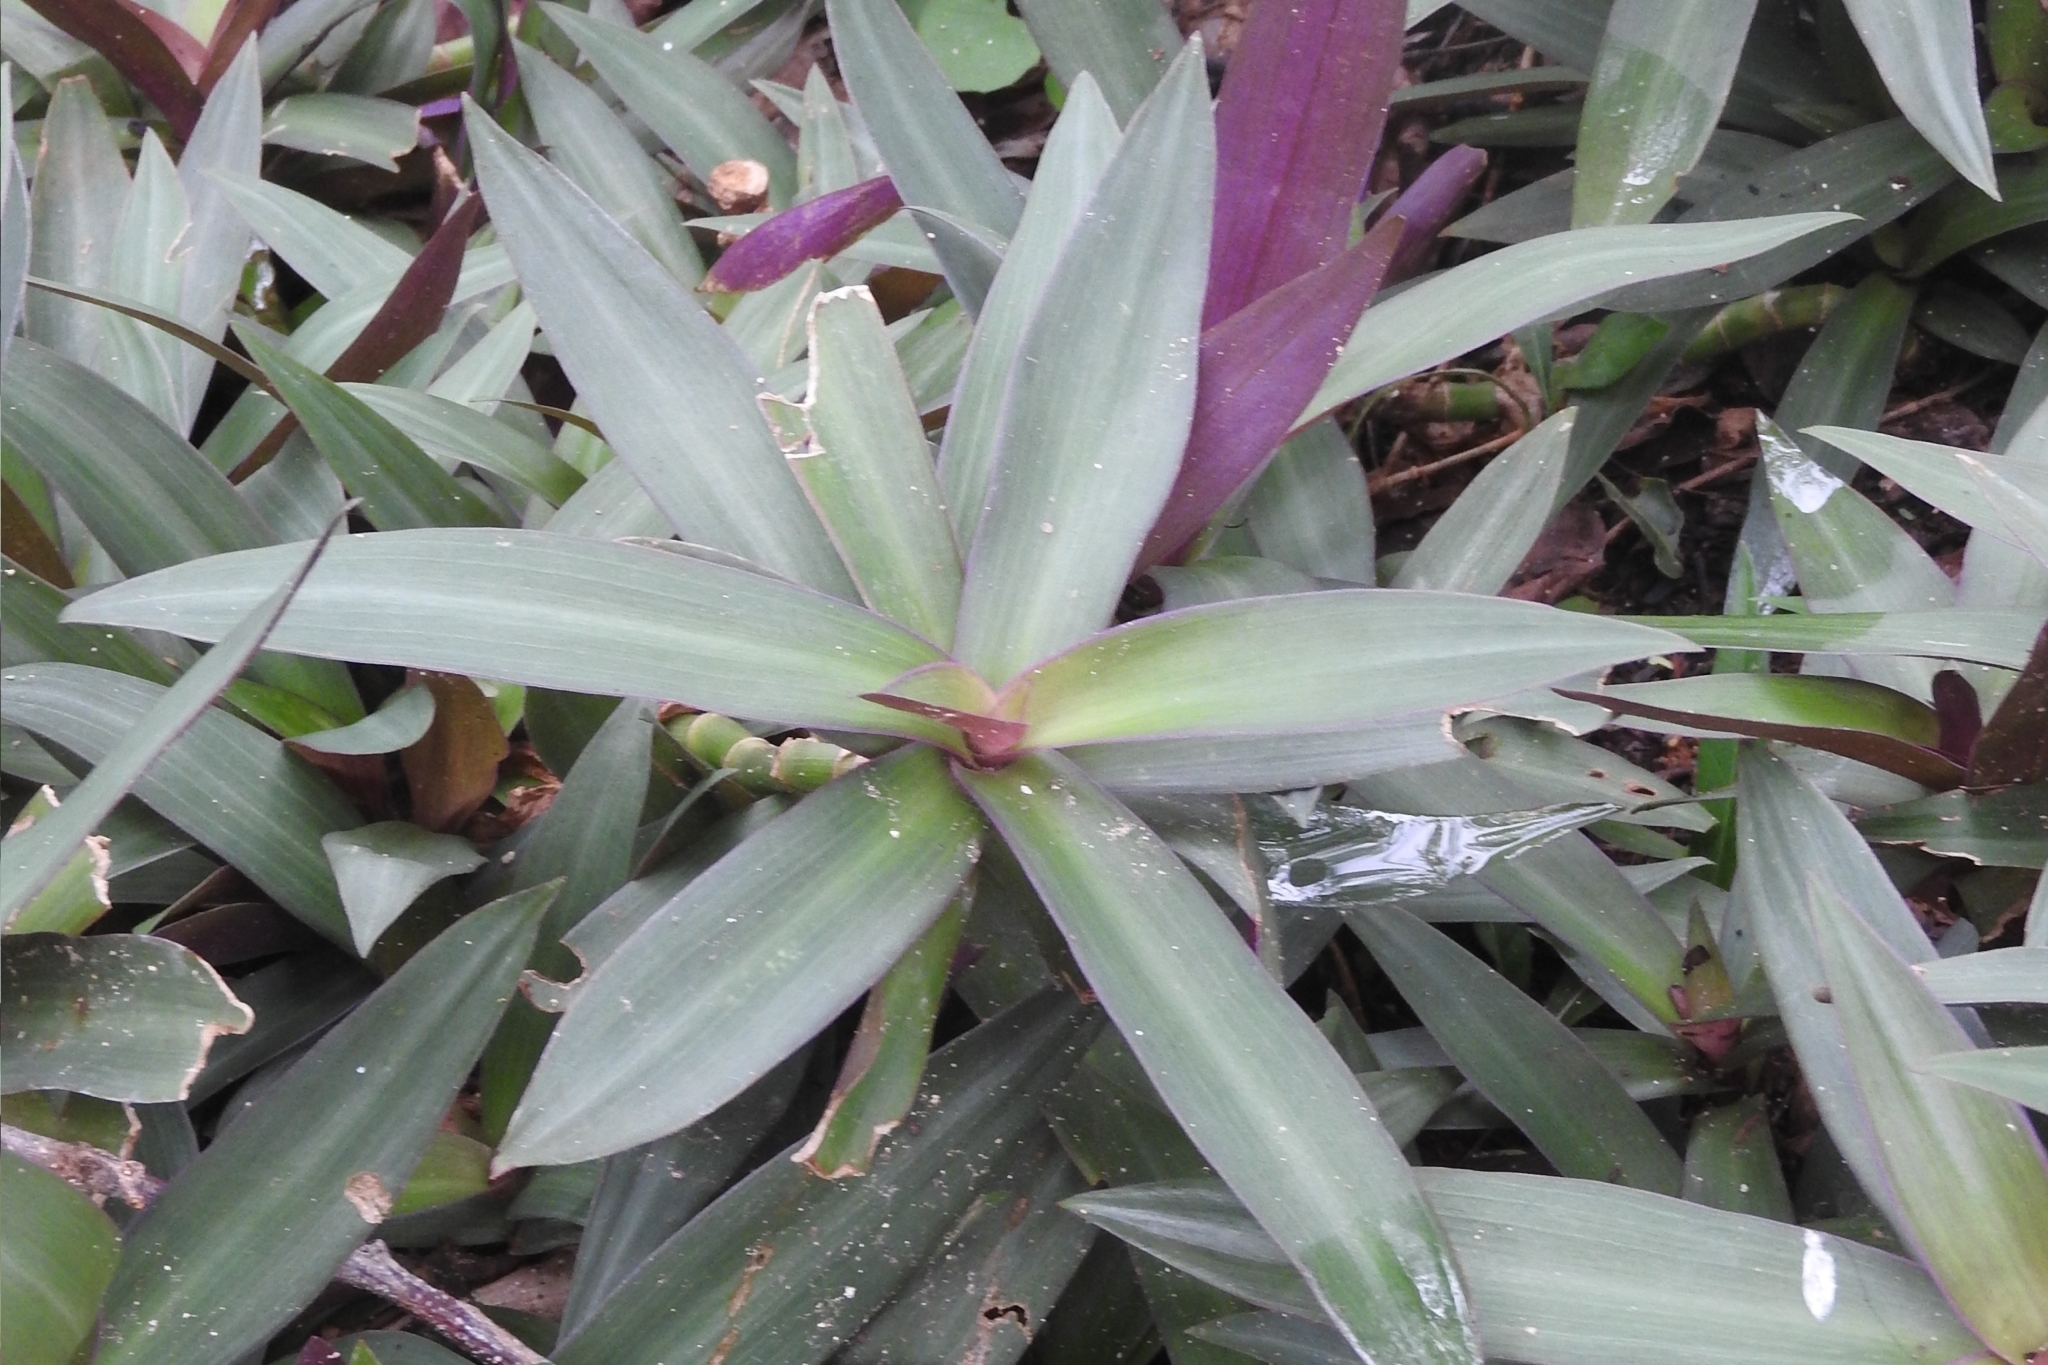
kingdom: Plantae
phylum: Tracheophyta
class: Liliopsida
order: Commelinales
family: Commelinaceae
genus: Tradescantia
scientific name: Tradescantia spathacea
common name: Boatlily
